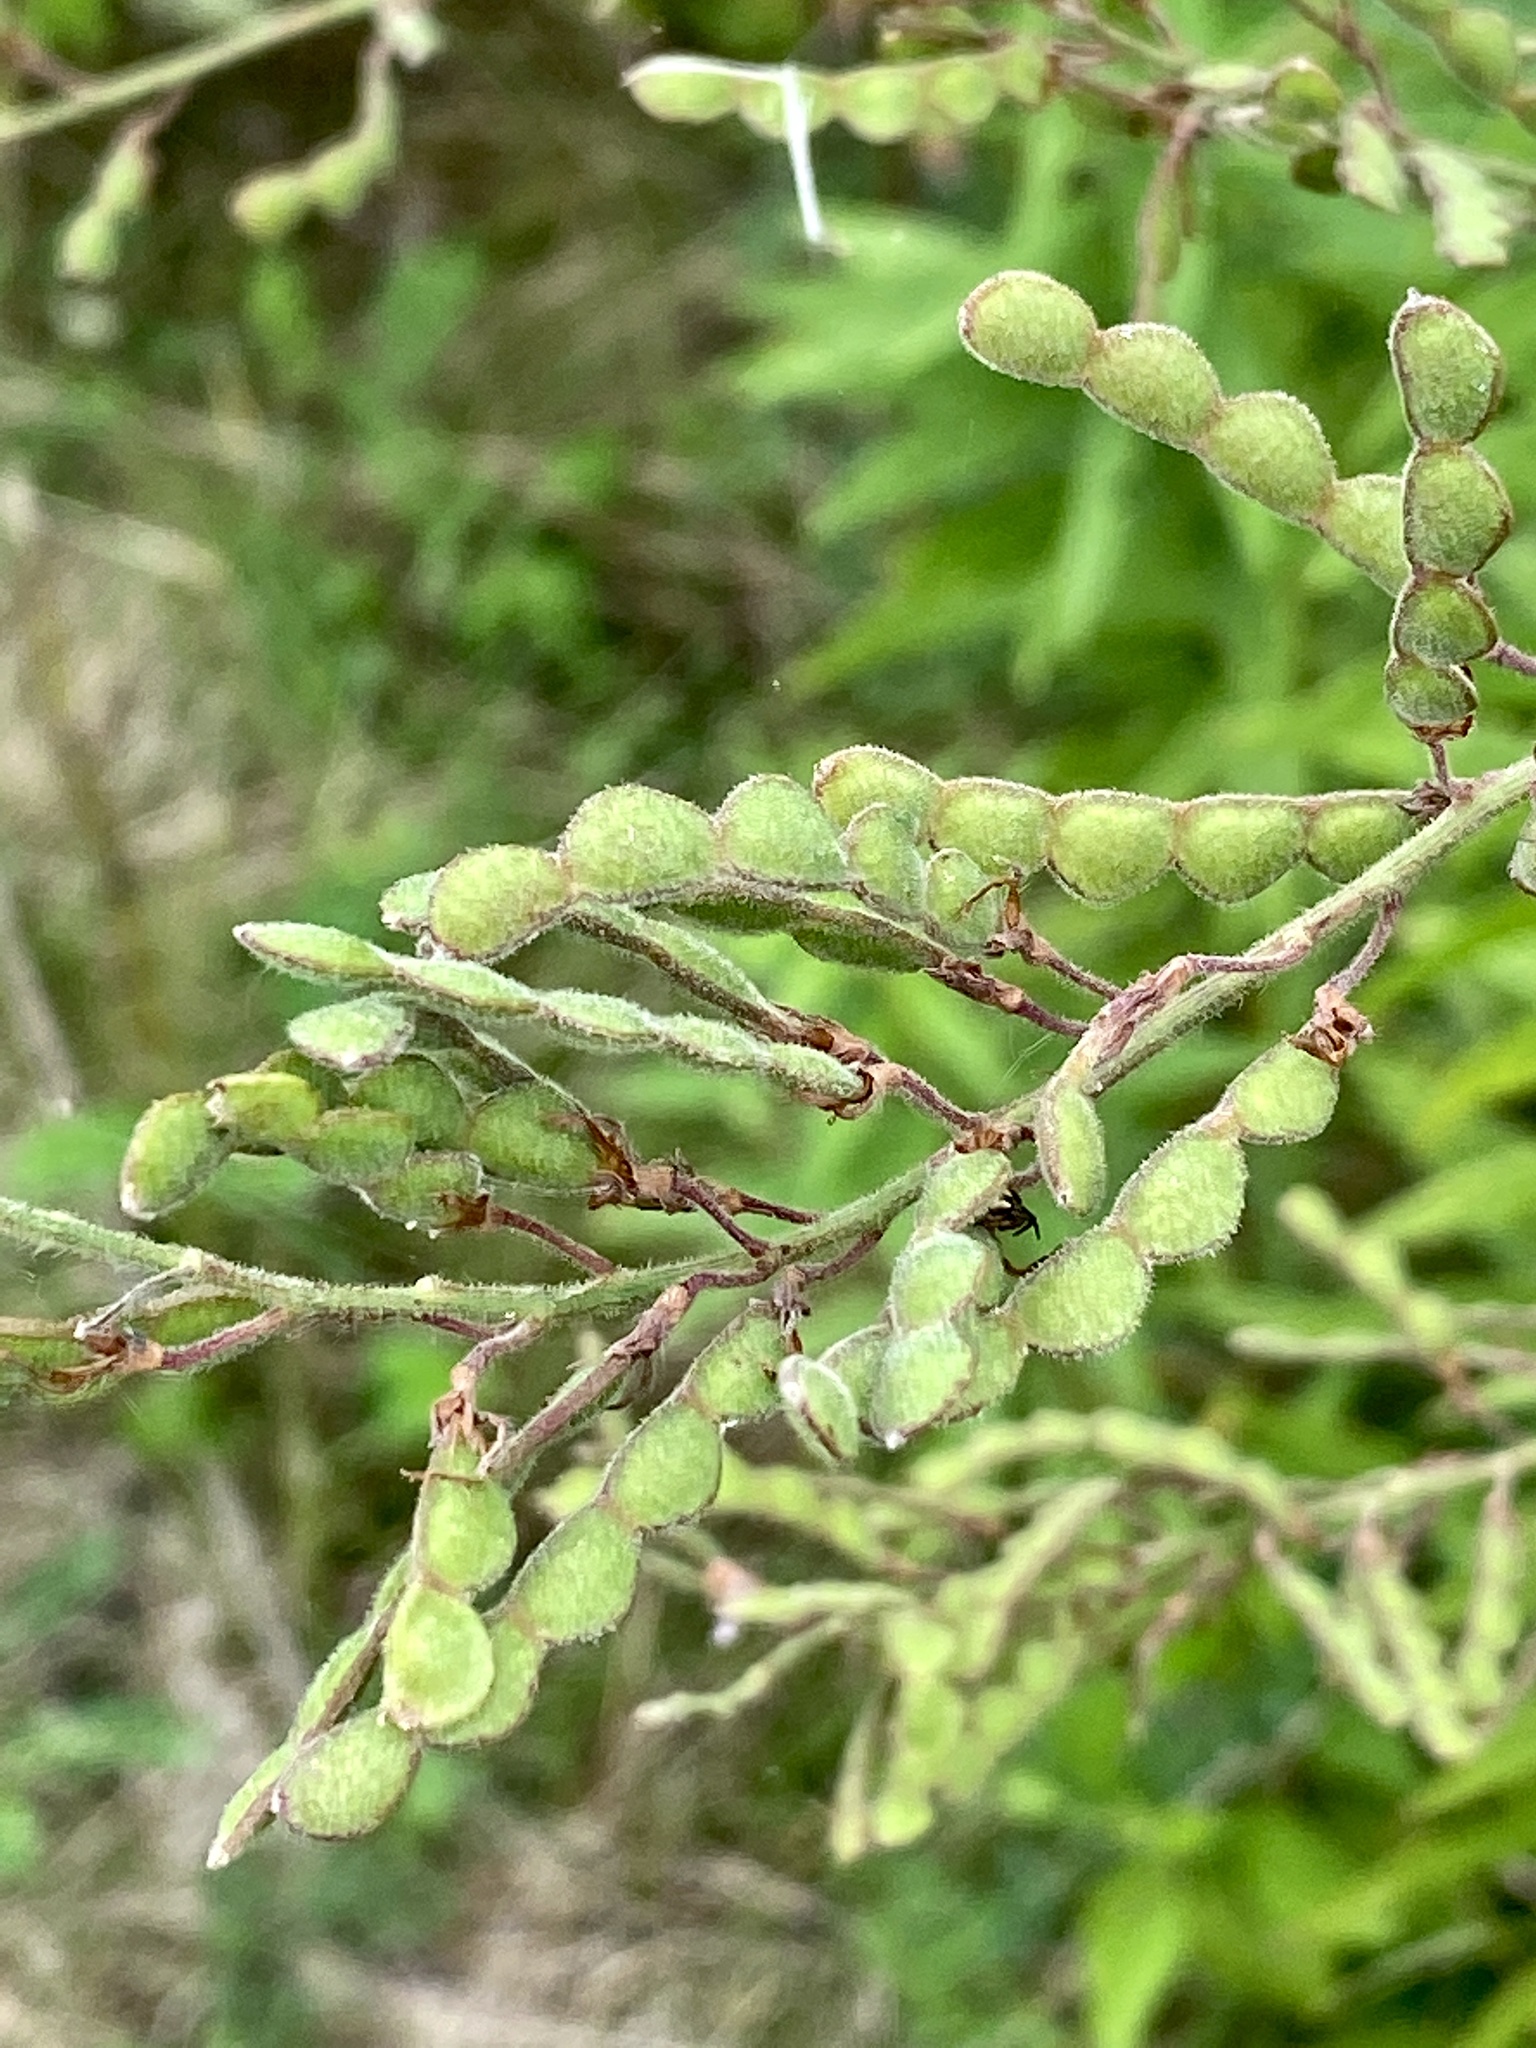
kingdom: Plantae
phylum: Tracheophyta
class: Magnoliopsida
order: Fabales
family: Fabaceae
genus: Desmodium
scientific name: Desmodium canadense
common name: Canada tick-trefoil
